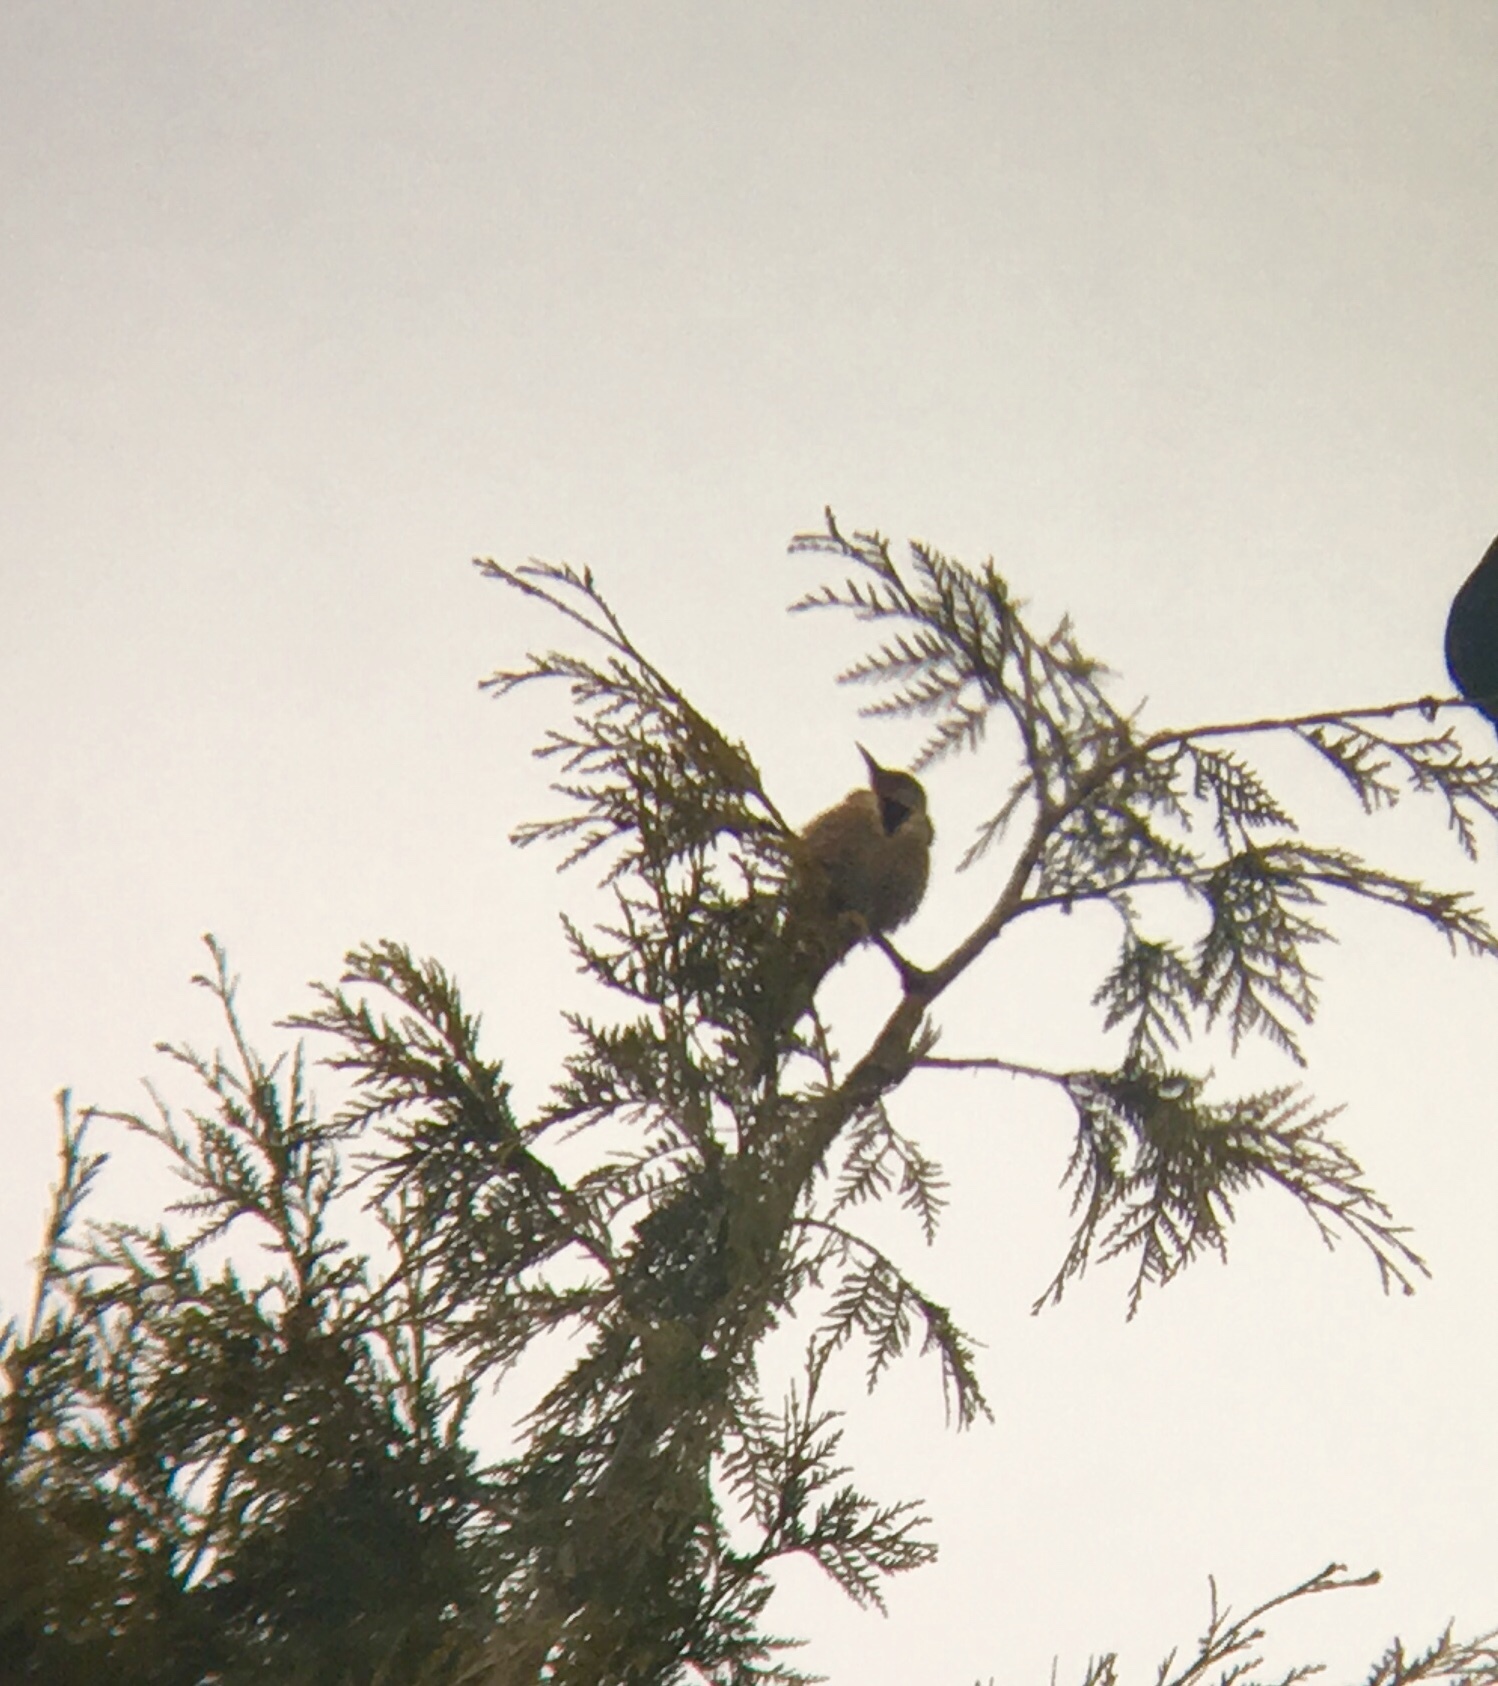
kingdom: Animalia
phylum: Chordata
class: Aves
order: Piciformes
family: Picidae
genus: Colaptes
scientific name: Colaptes auratus
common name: Northern flicker
